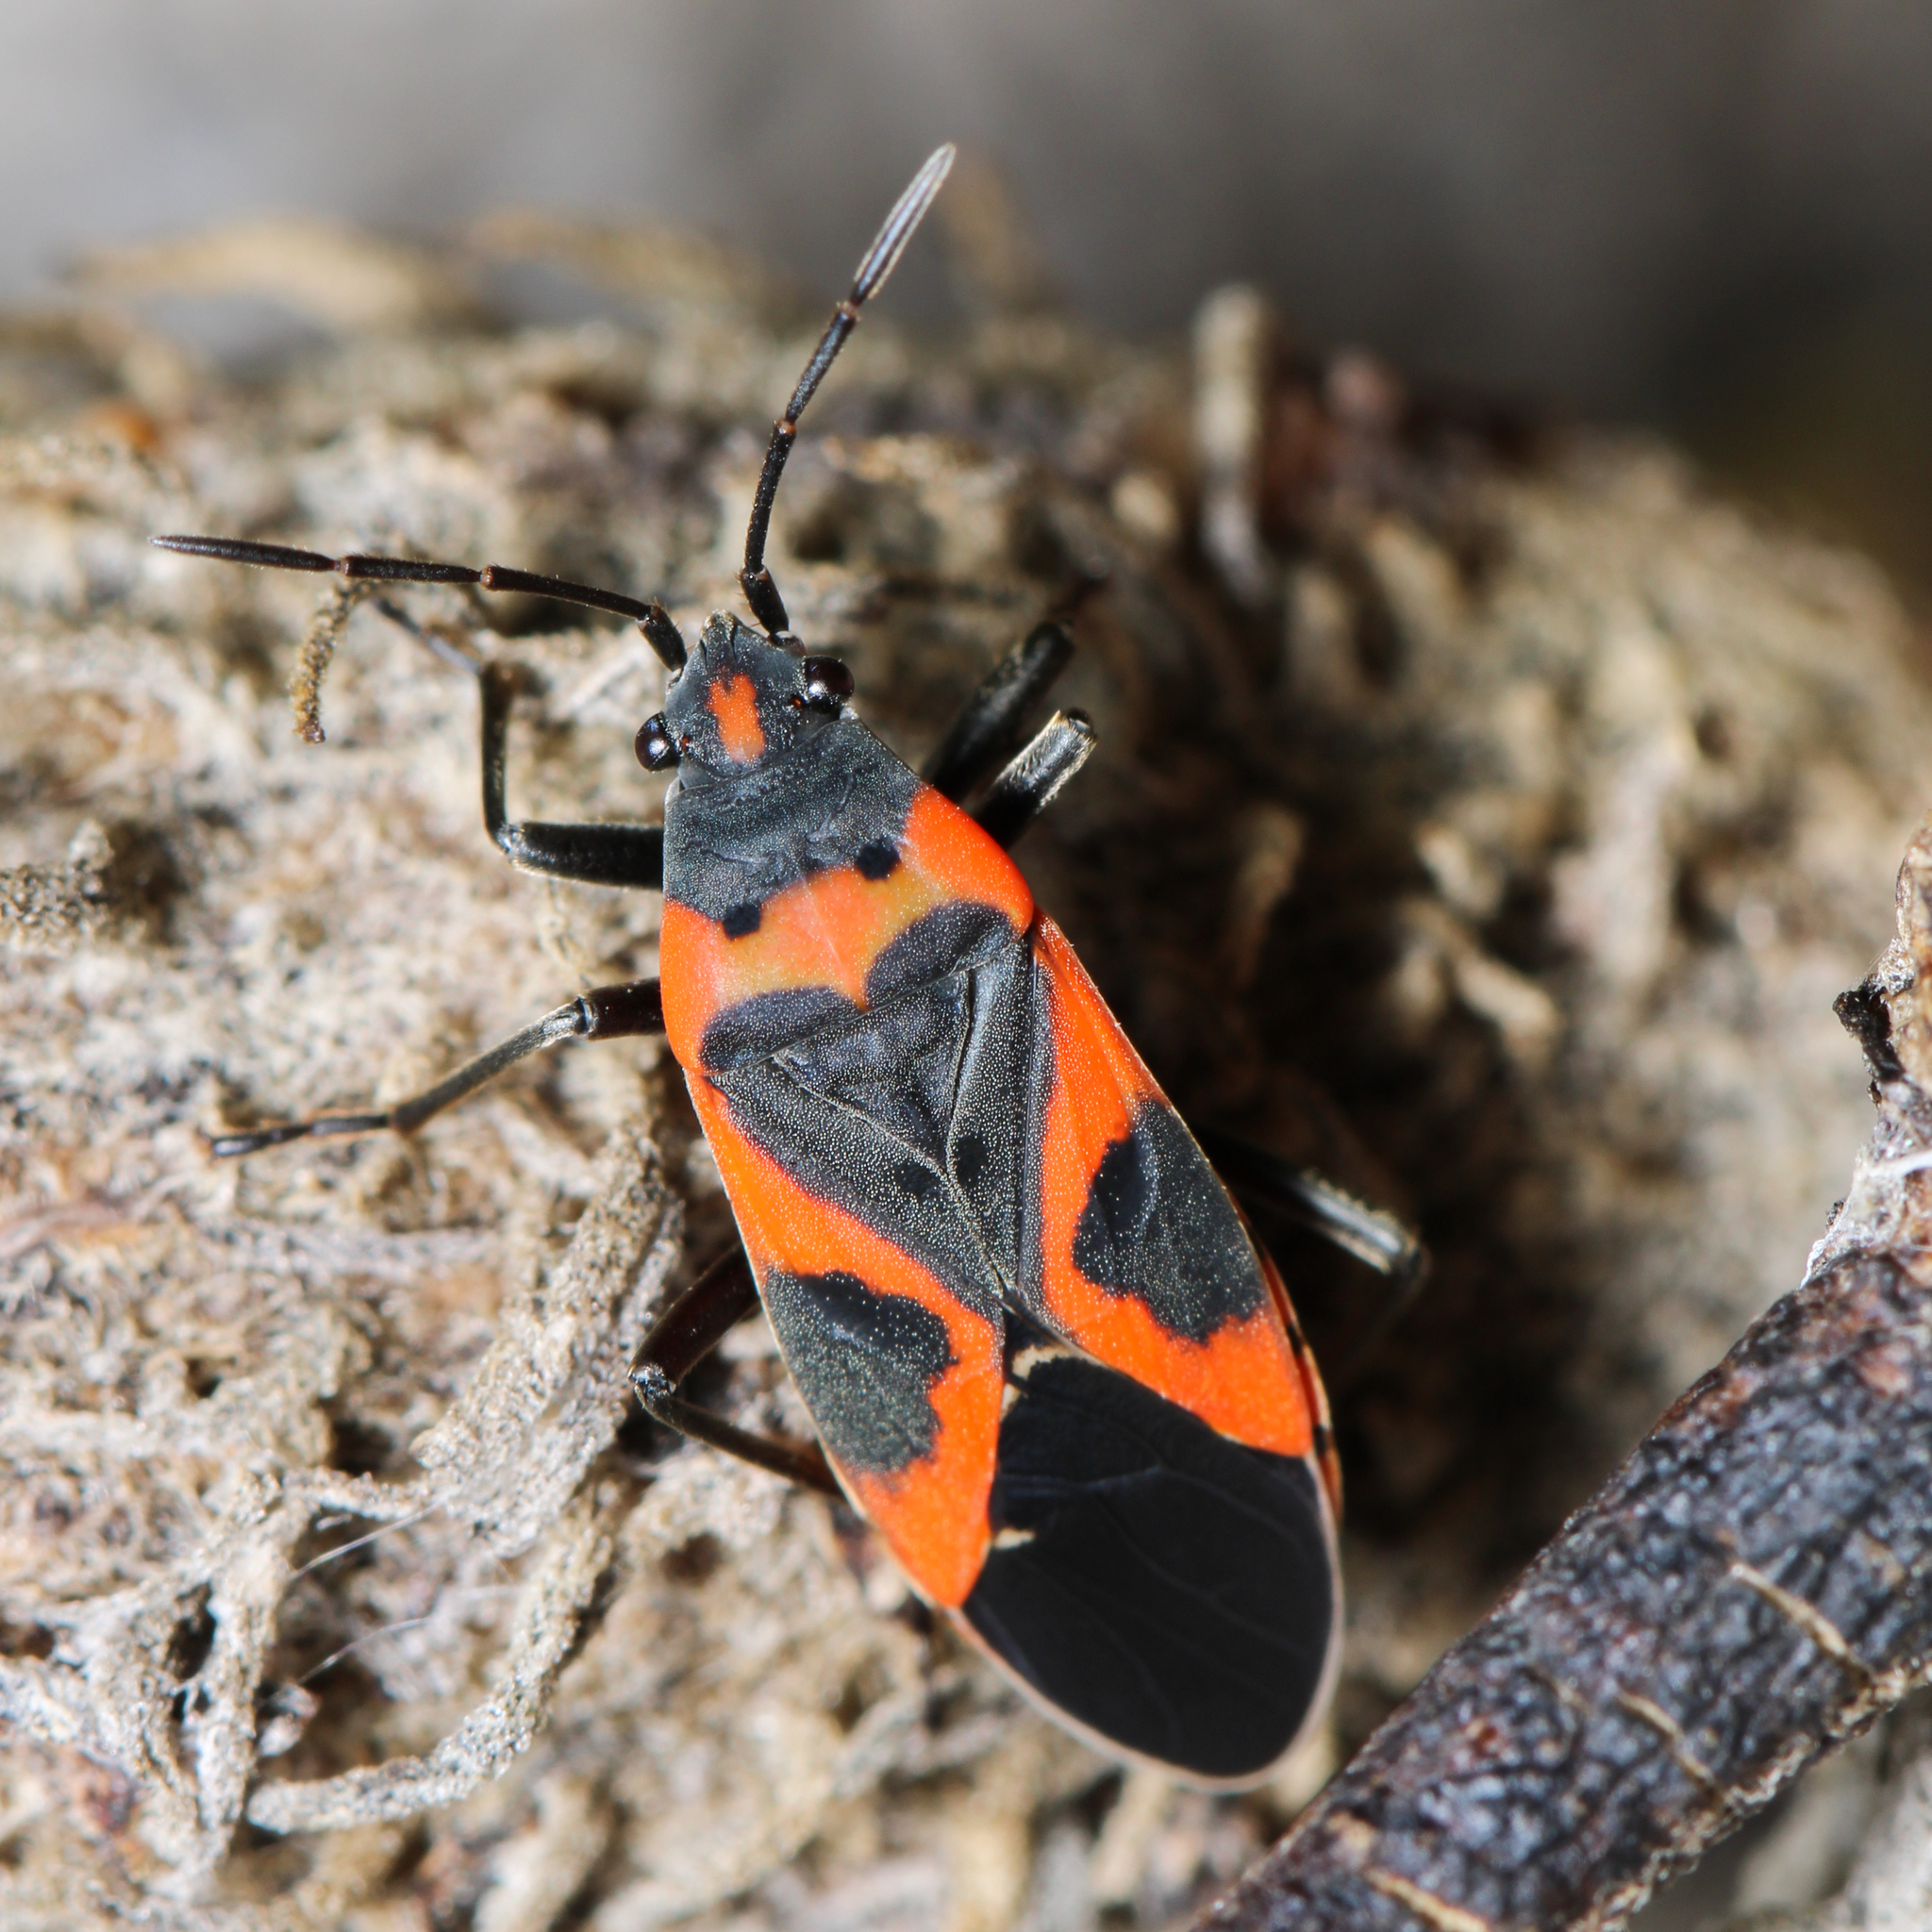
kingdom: Animalia
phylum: Arthropoda
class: Insecta
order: Hemiptera
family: Lygaeidae
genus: Lygaeus
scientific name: Lygaeus kalmii
